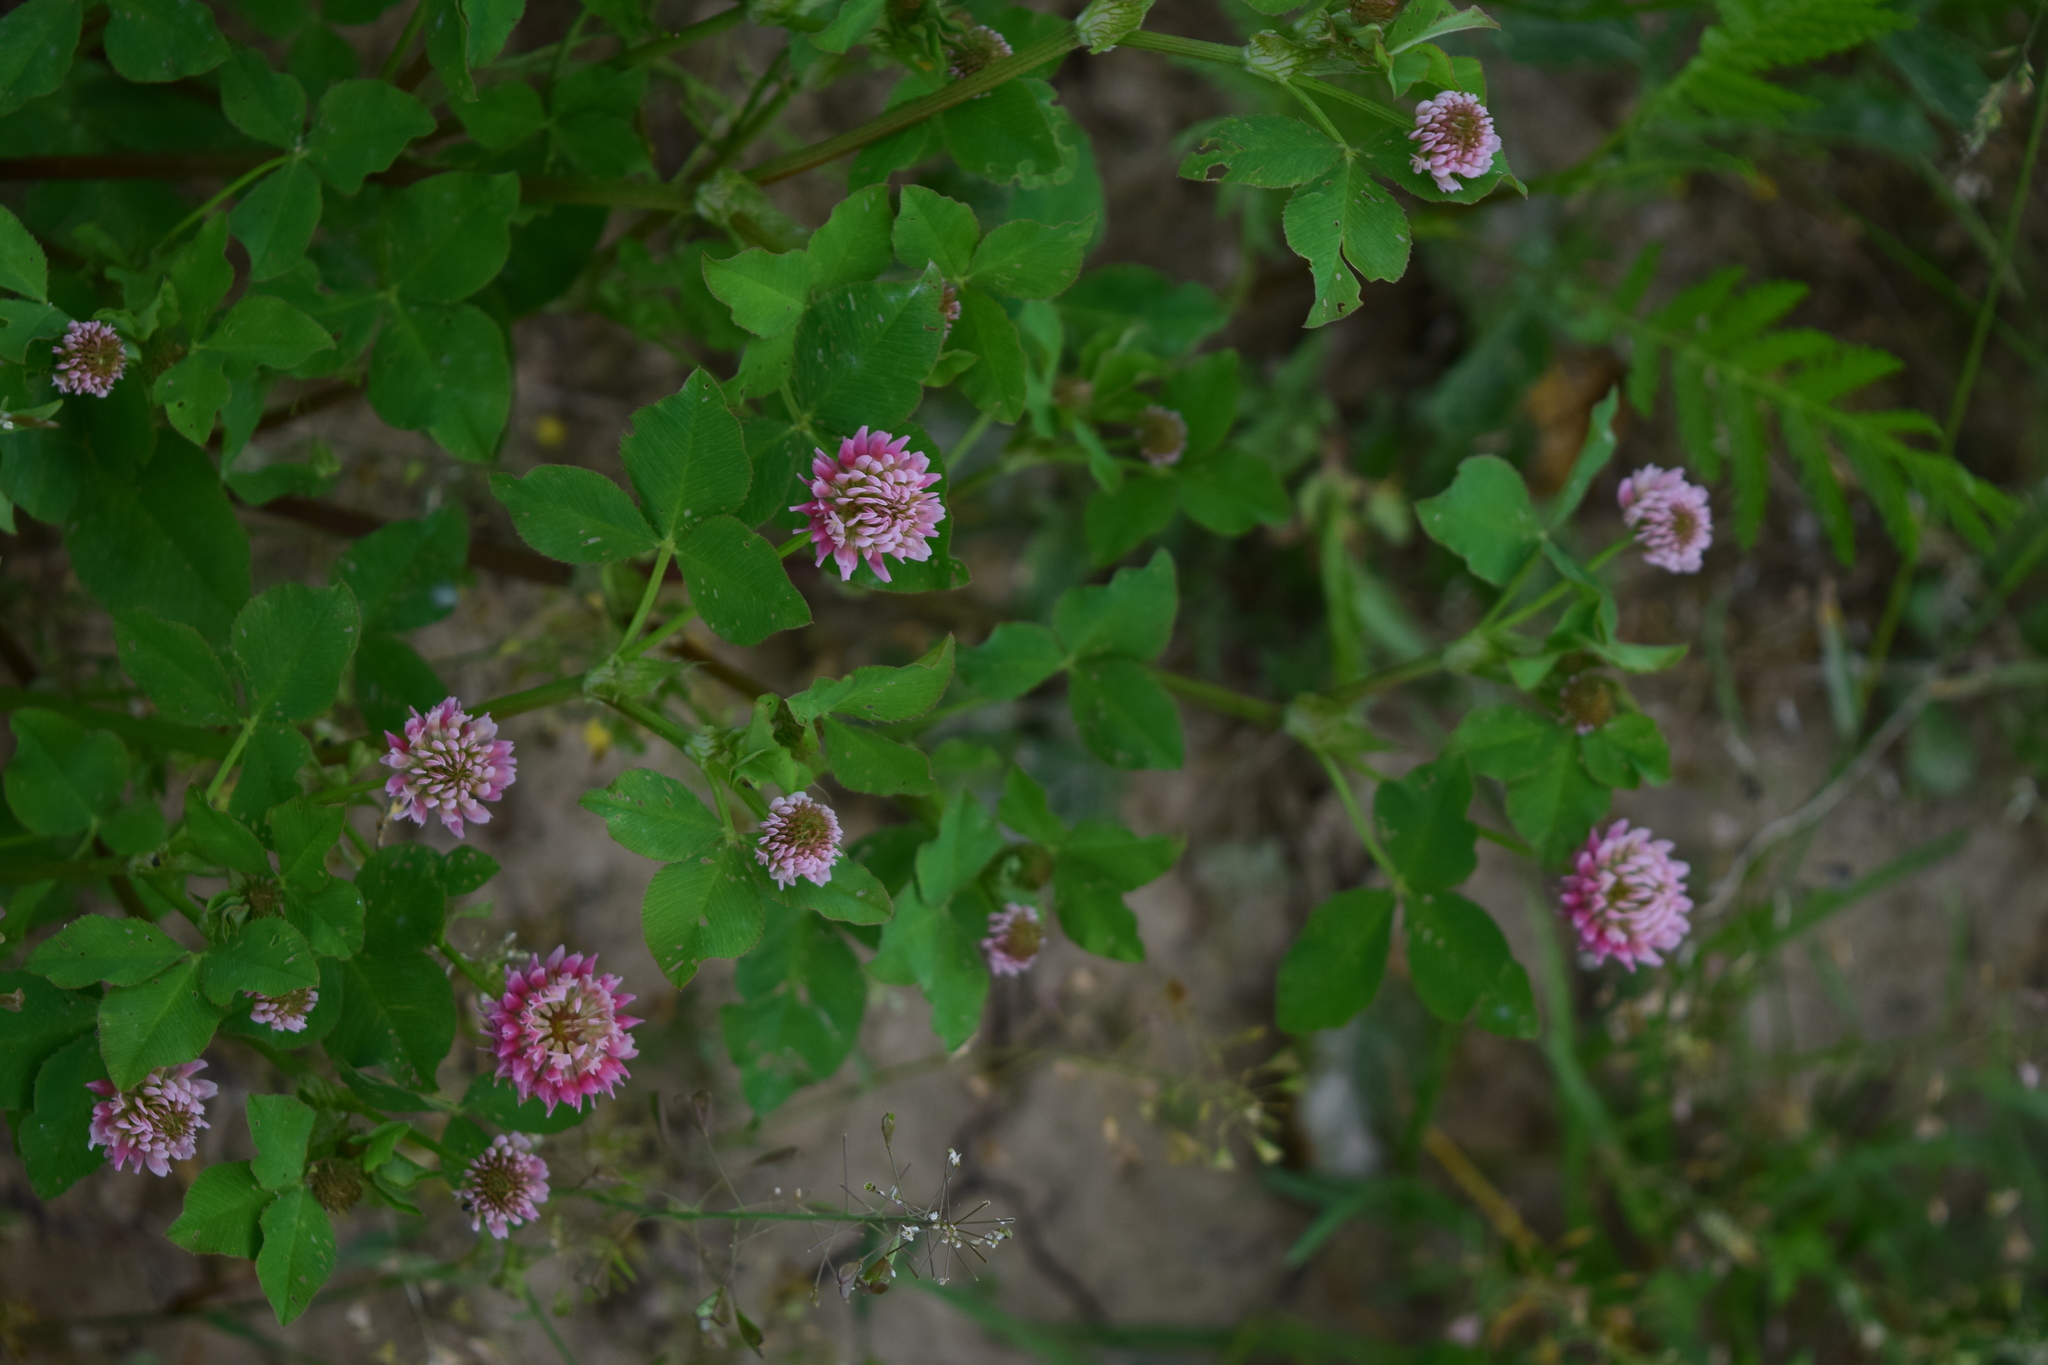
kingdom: Plantae
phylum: Tracheophyta
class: Magnoliopsida
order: Fabales
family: Fabaceae
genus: Trifolium
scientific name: Trifolium hybridum
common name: Alsike clover
